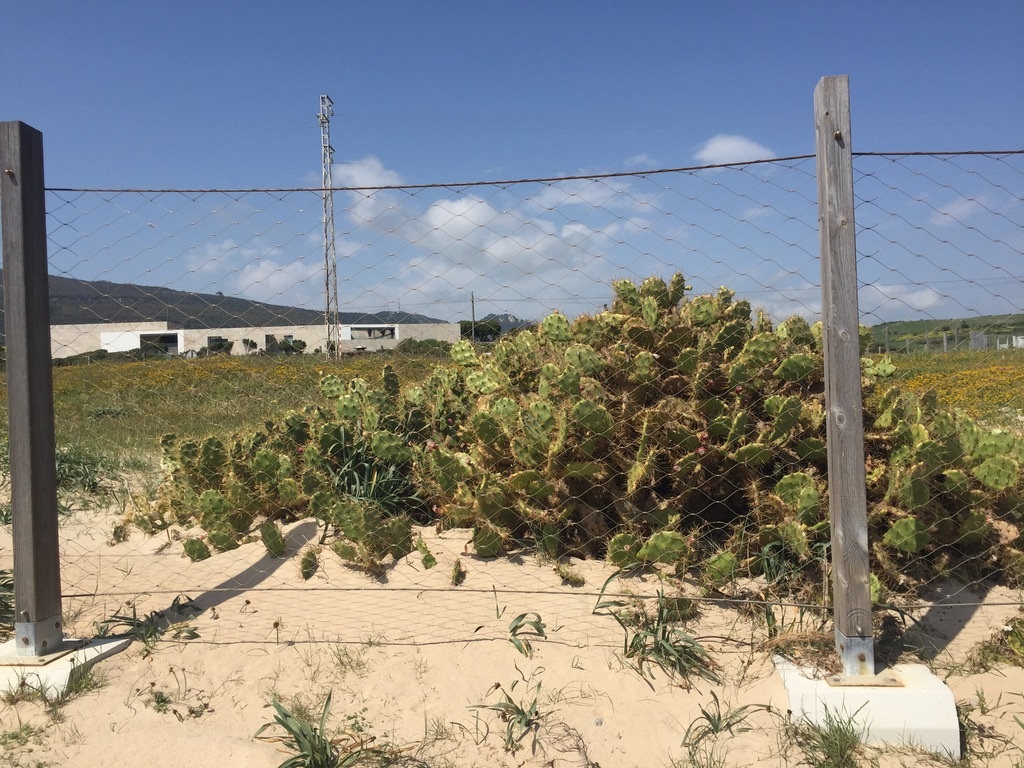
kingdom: Plantae
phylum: Tracheophyta
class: Magnoliopsida
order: Caryophyllales
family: Cactaceae
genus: Opuntia
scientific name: Opuntia stricta
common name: Erect pricklypear
